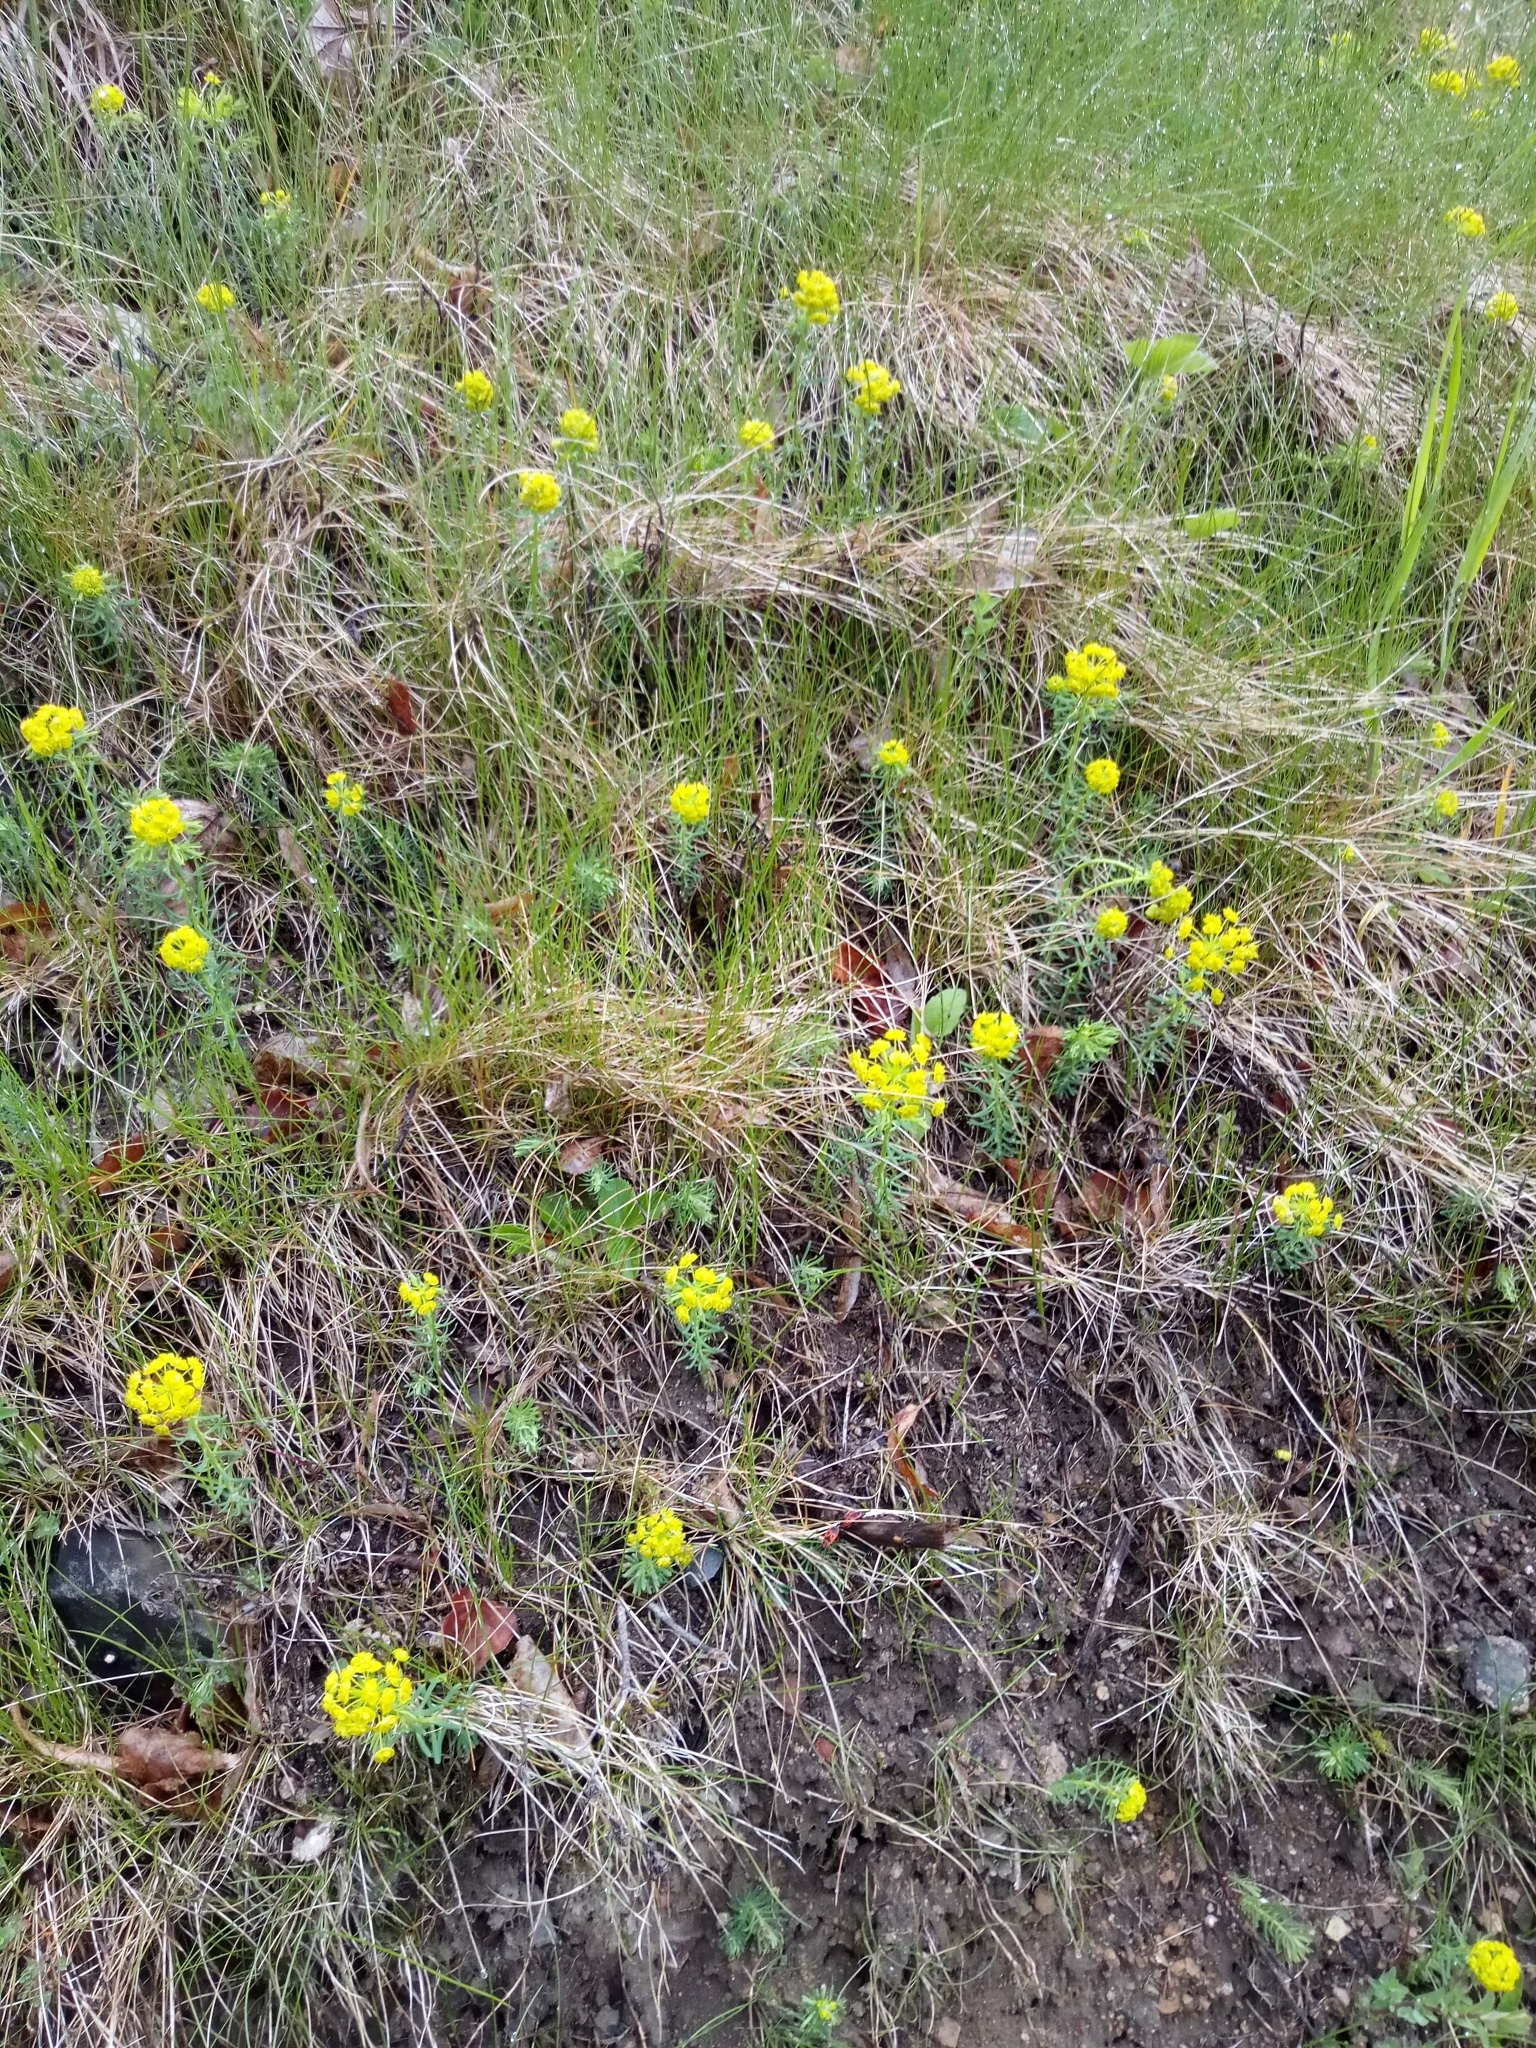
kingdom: Plantae
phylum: Tracheophyta
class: Magnoliopsida
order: Malpighiales
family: Euphorbiaceae
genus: Euphorbia
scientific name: Euphorbia cyparissias
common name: Cypress spurge
